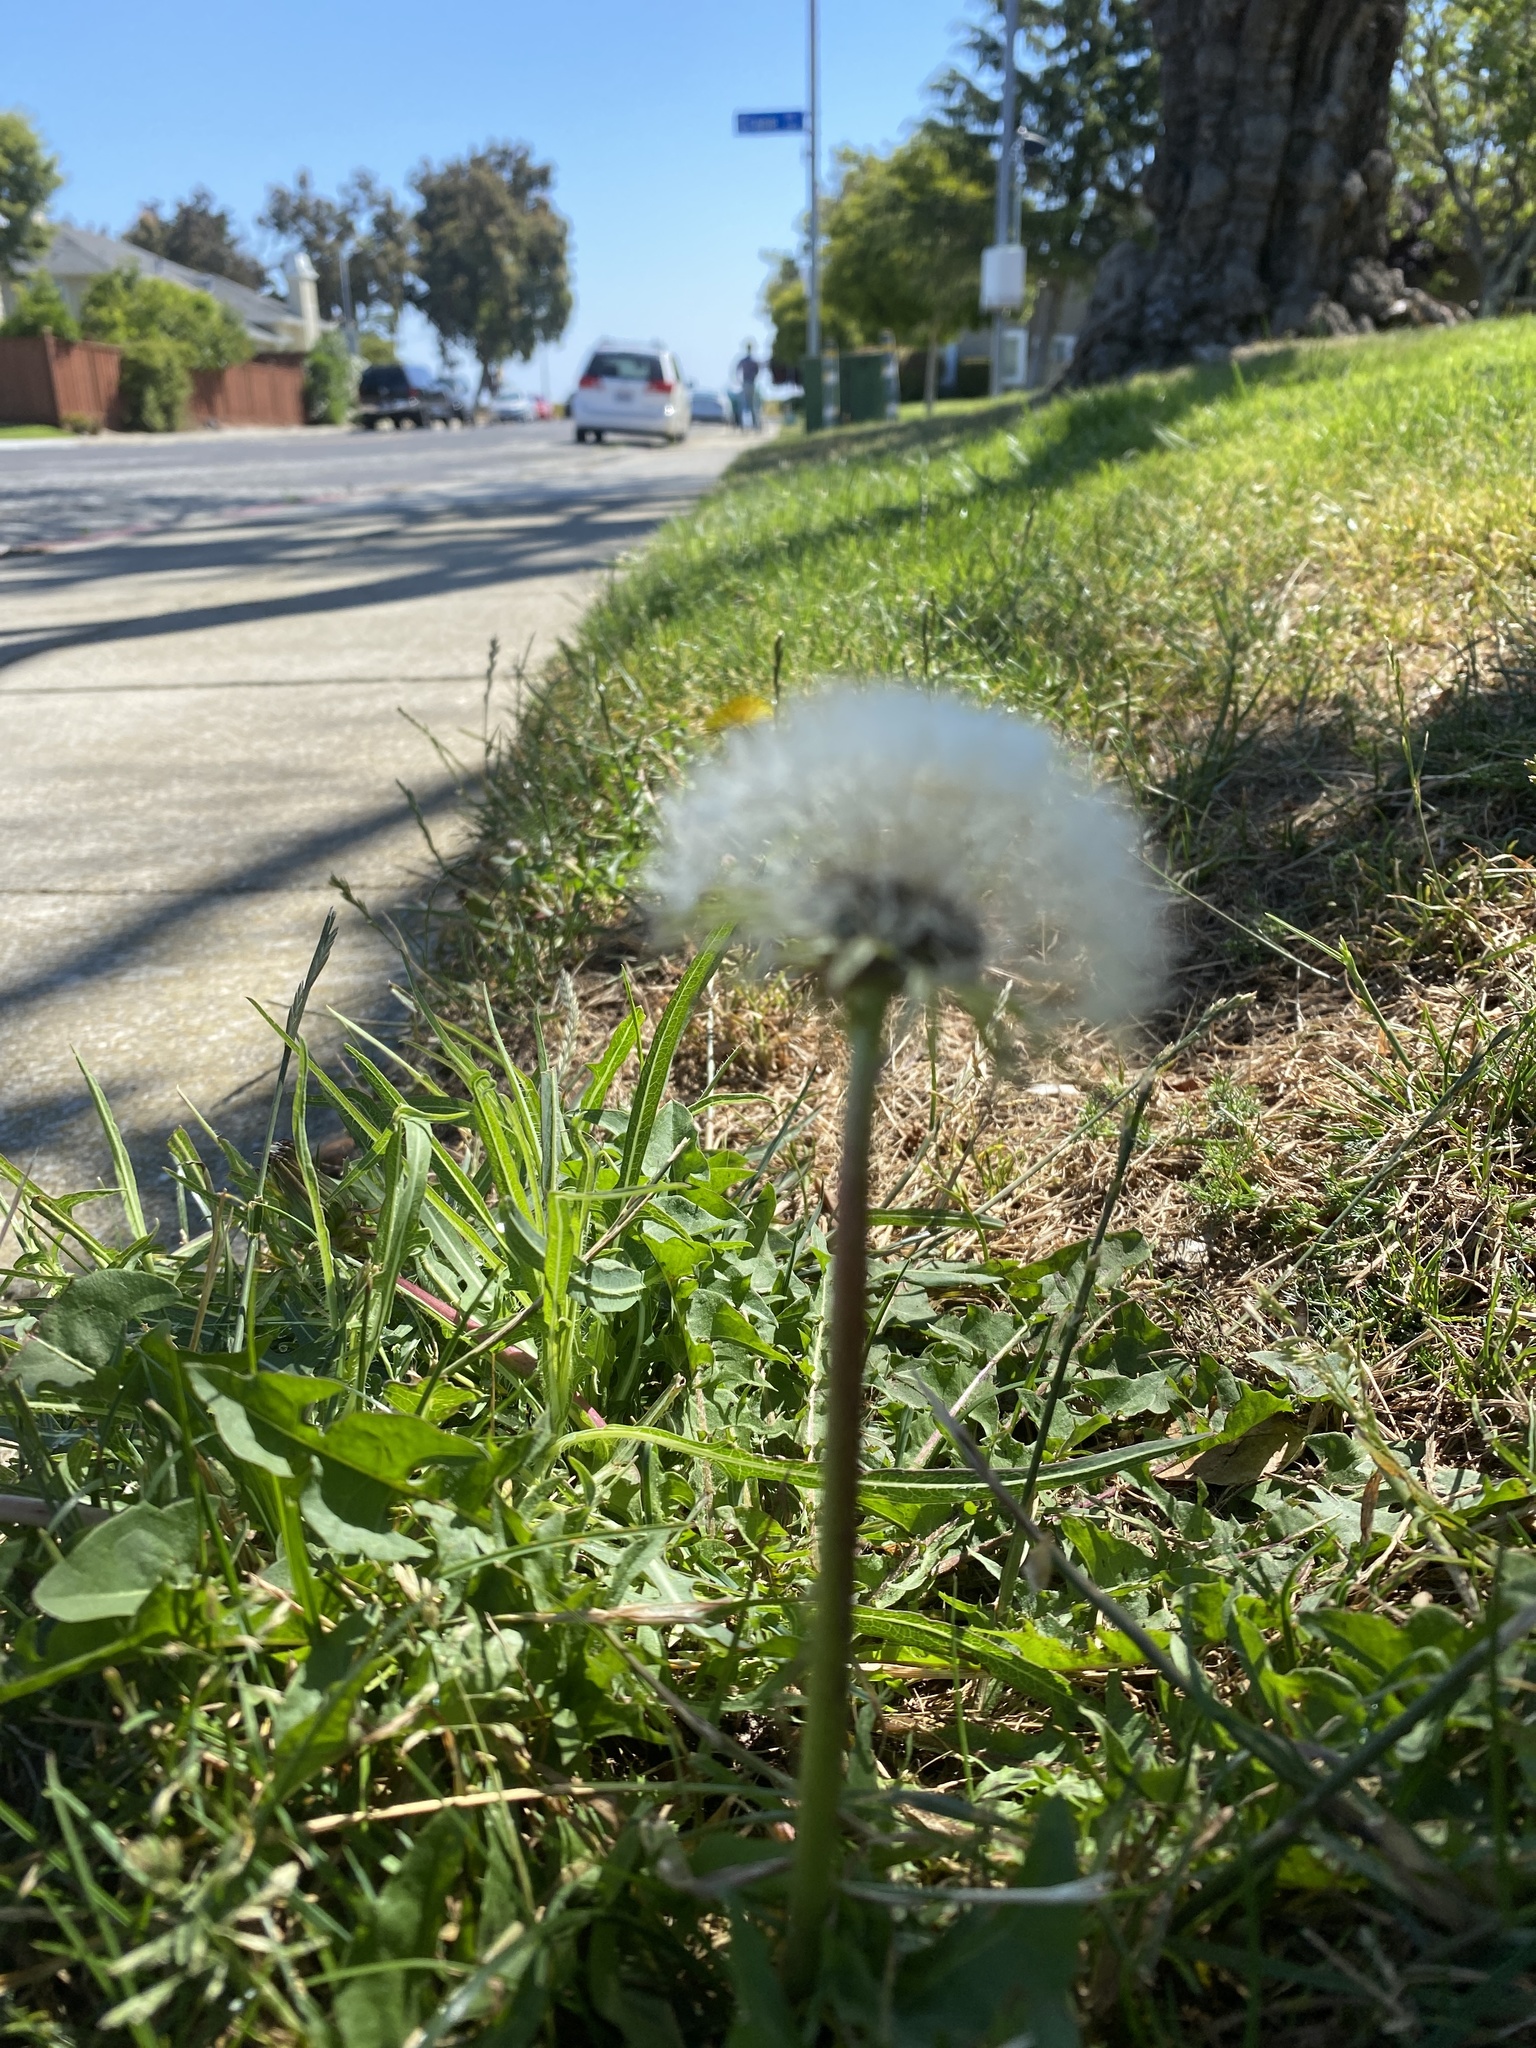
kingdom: Plantae
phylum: Tracheophyta
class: Magnoliopsida
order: Asterales
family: Asteraceae
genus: Taraxacum
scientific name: Taraxacum officinale
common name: Common dandelion
